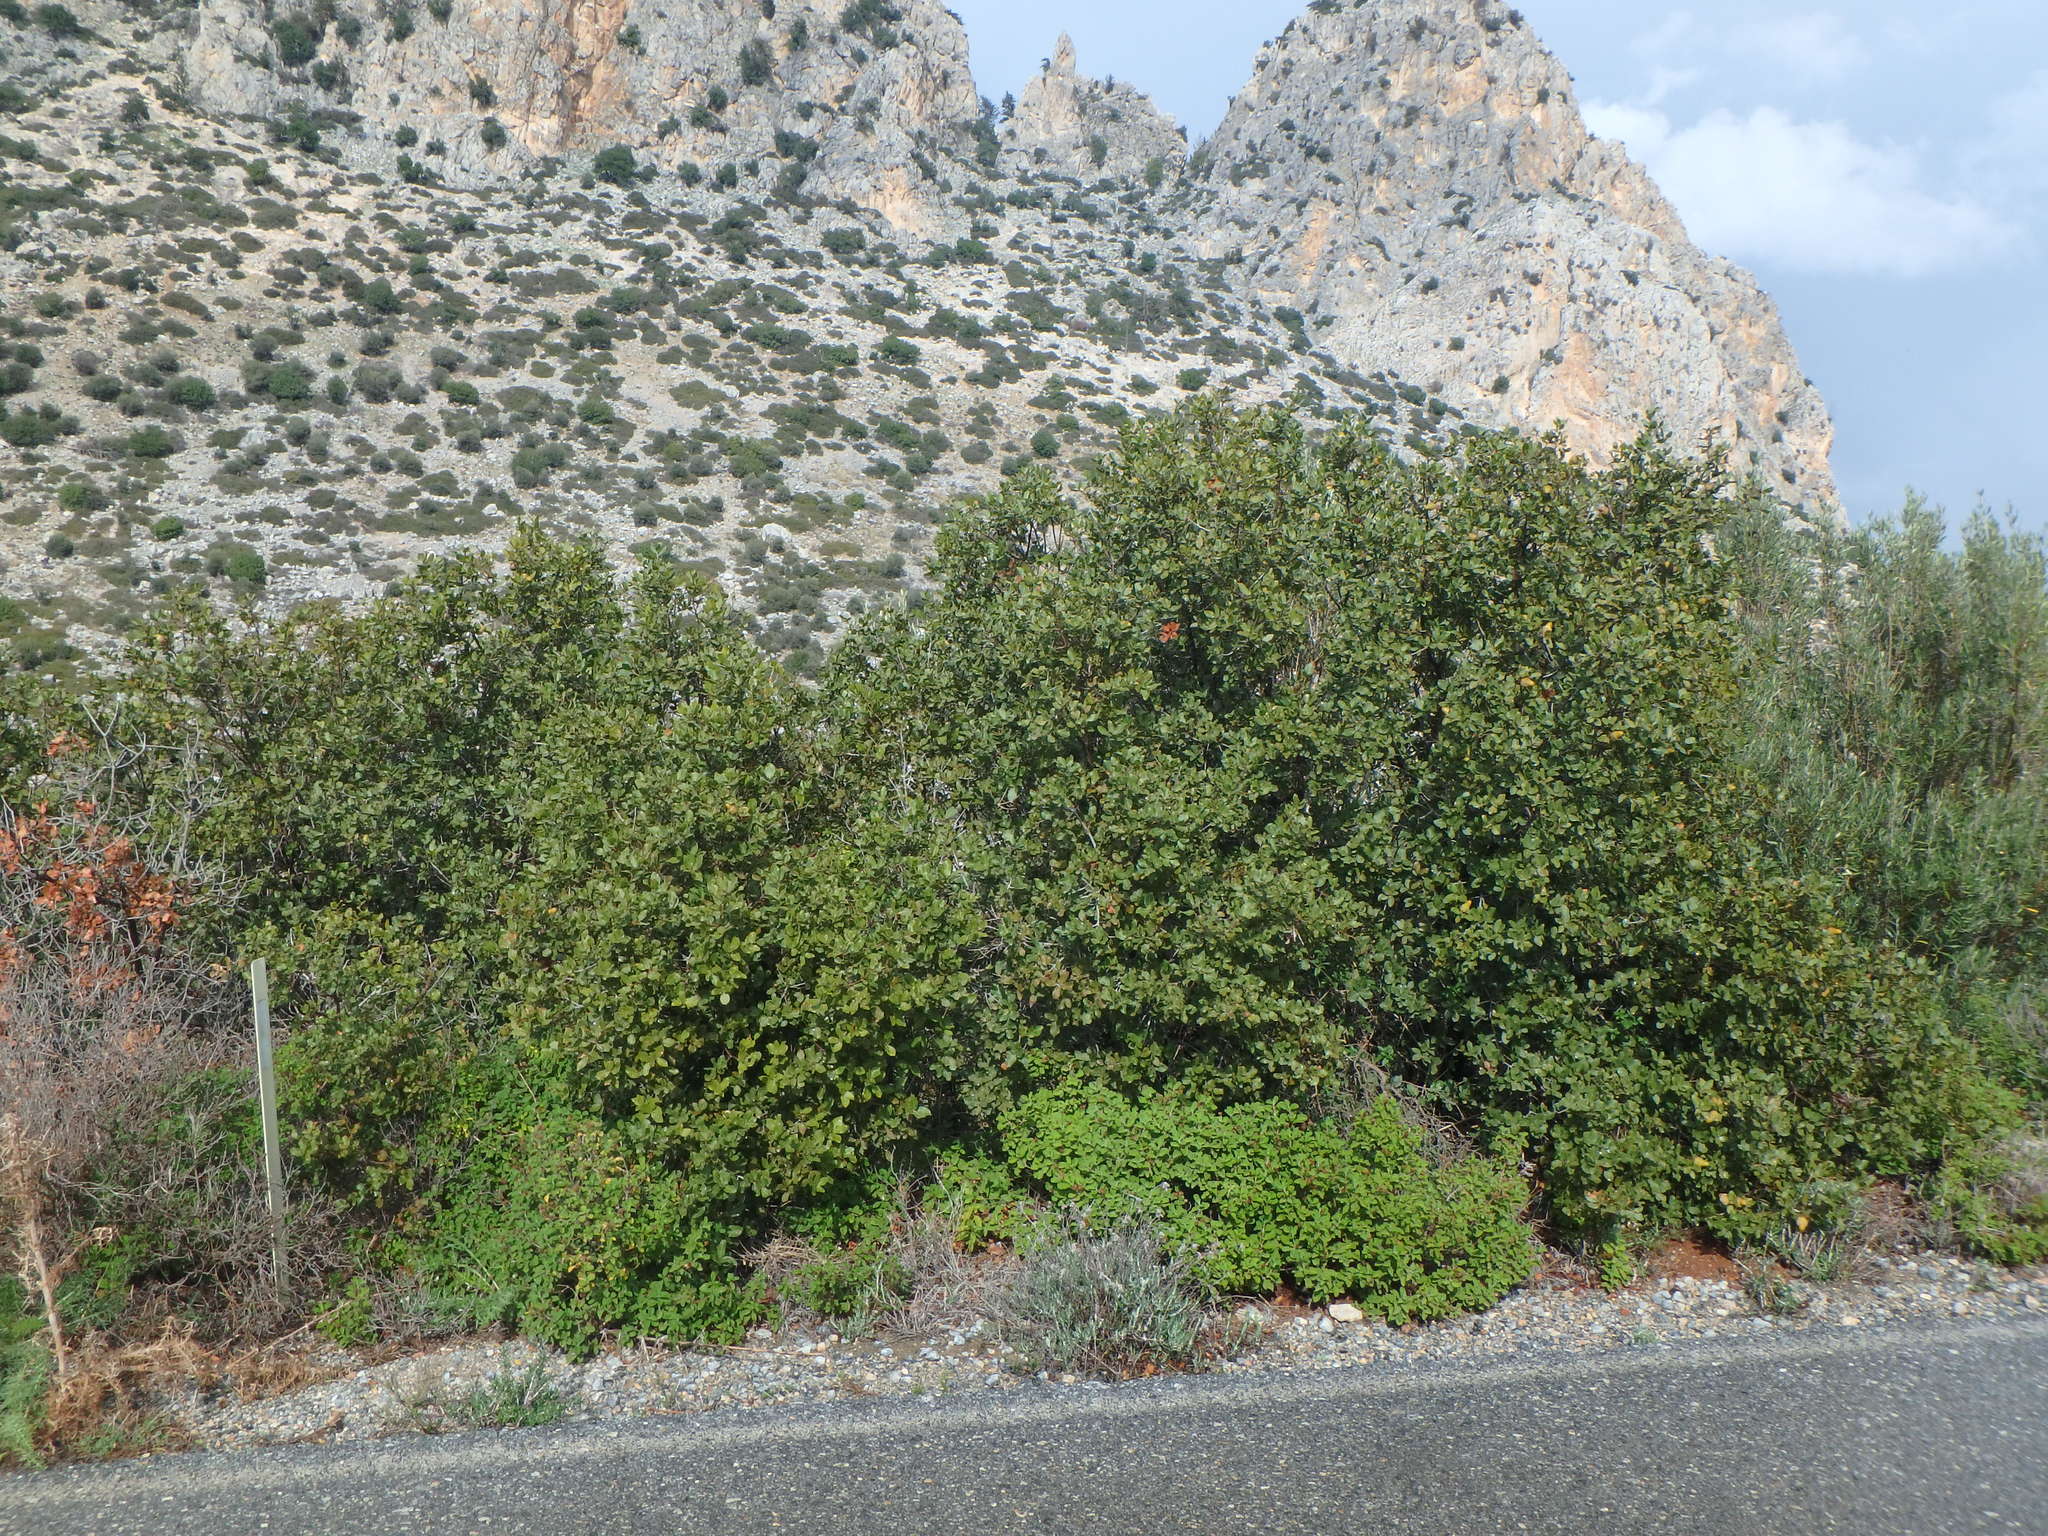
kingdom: Plantae
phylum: Tracheophyta
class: Magnoliopsida
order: Fagales
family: Fagaceae
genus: Quercus
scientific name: Quercus coccifera
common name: Kermes oak
